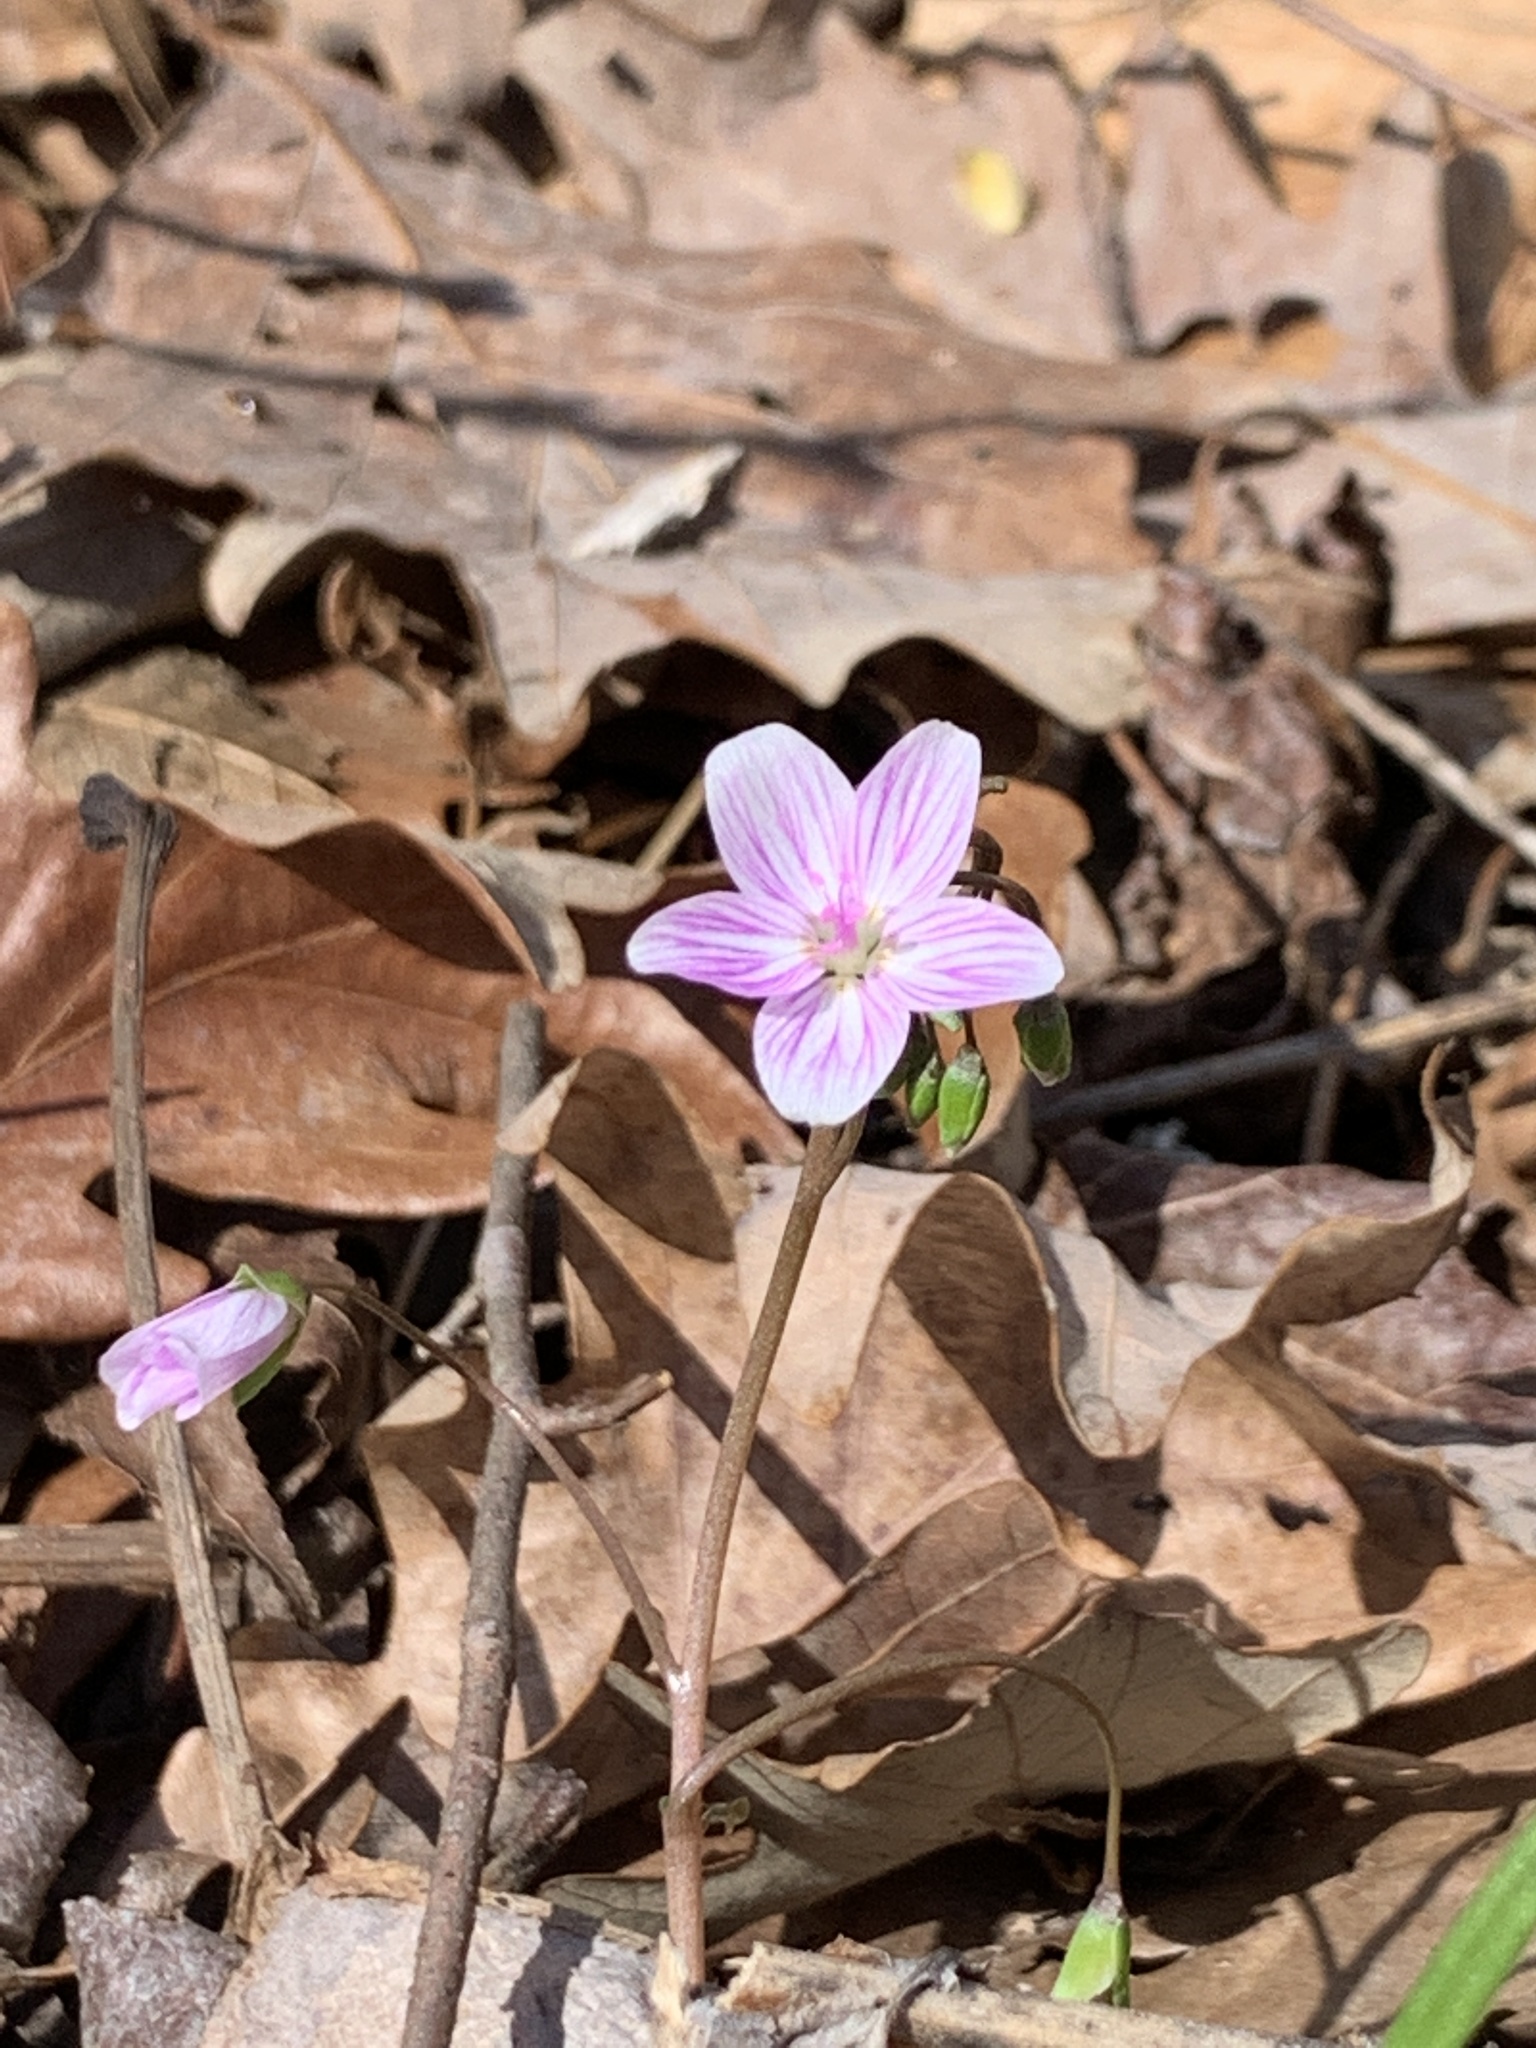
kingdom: Plantae
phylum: Tracheophyta
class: Magnoliopsida
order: Caryophyllales
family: Montiaceae
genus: Claytonia
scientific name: Claytonia virginica
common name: Virginia springbeauty
